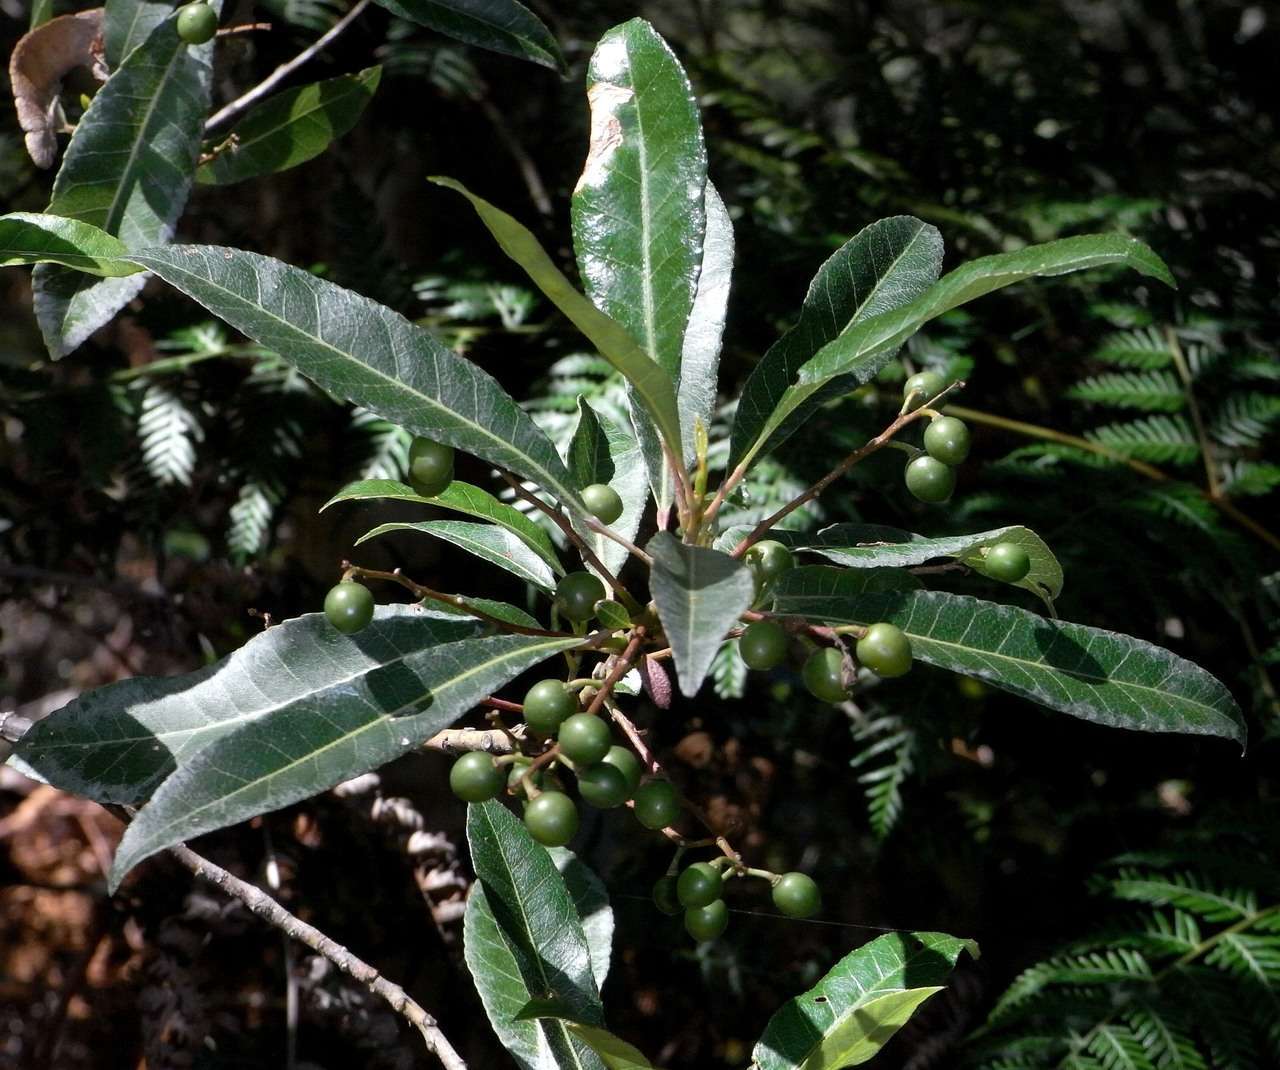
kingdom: Plantae
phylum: Tracheophyta
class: Magnoliopsida
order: Oxalidales
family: Elaeocarpaceae
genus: Elaeocarpus
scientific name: Elaeocarpus reticulatus
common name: Ash quandong
